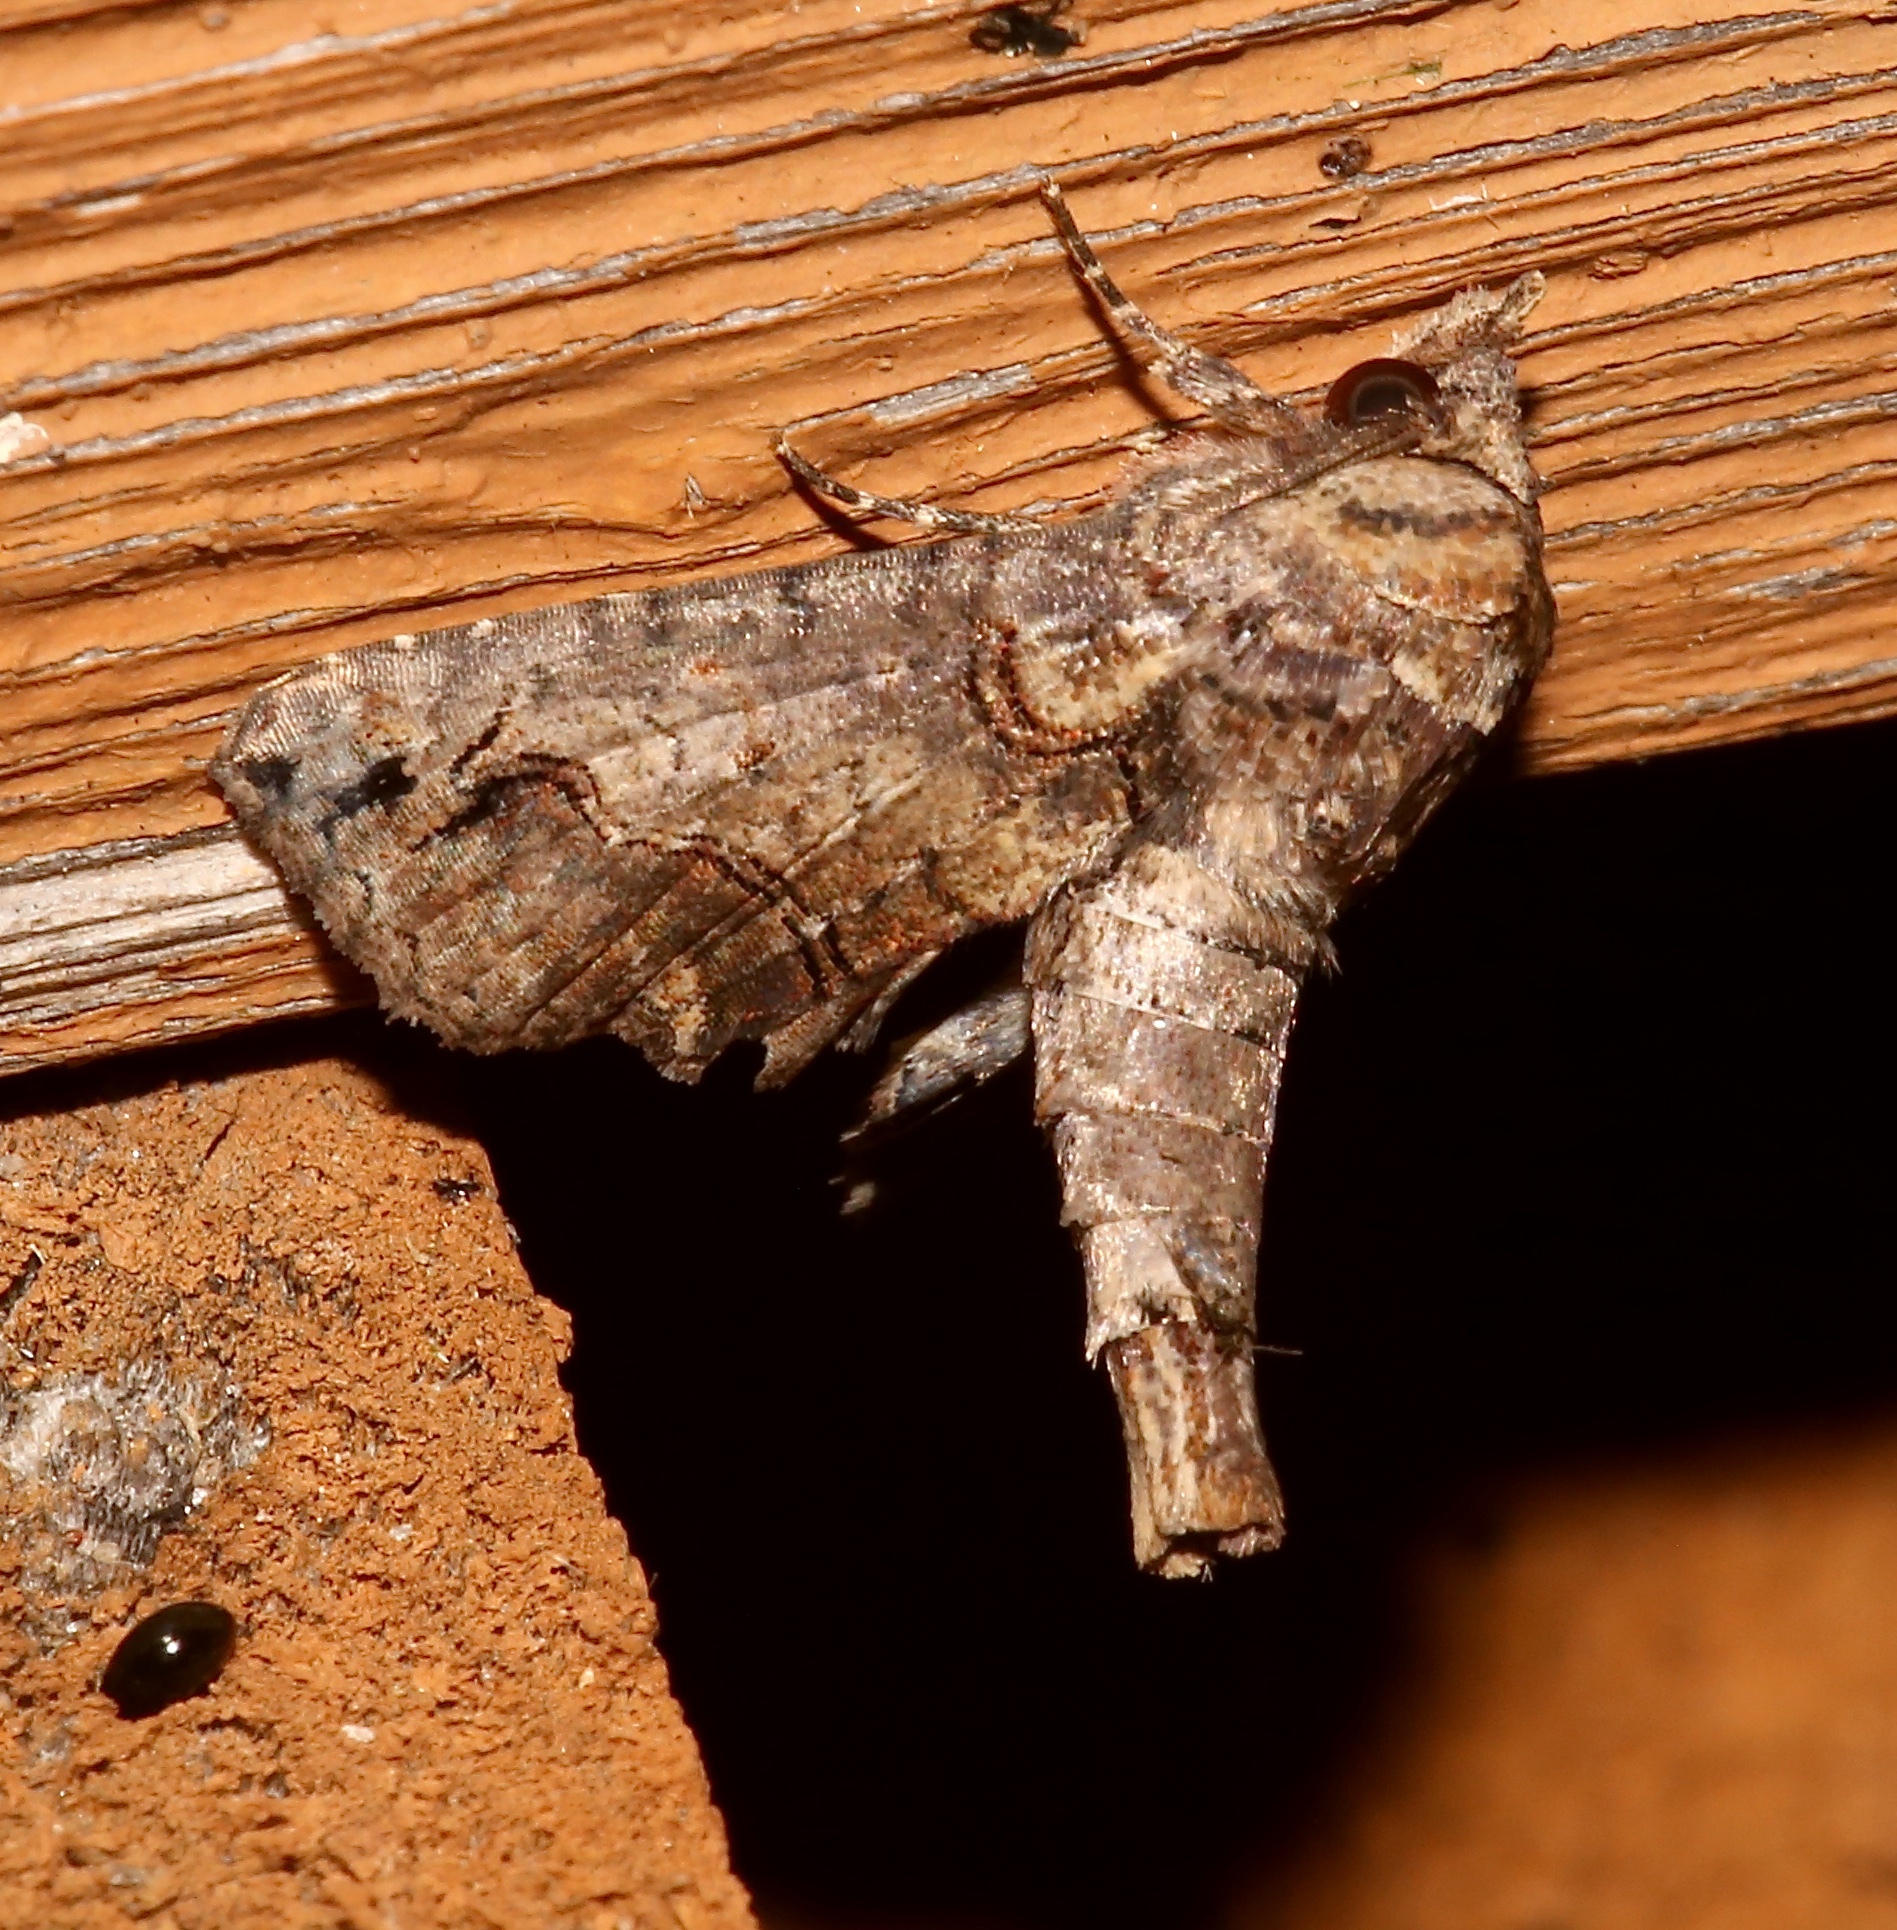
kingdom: Animalia
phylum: Arthropoda
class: Insecta
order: Lepidoptera
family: Euteliidae
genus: Paectes
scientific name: Paectes abrostoloides
